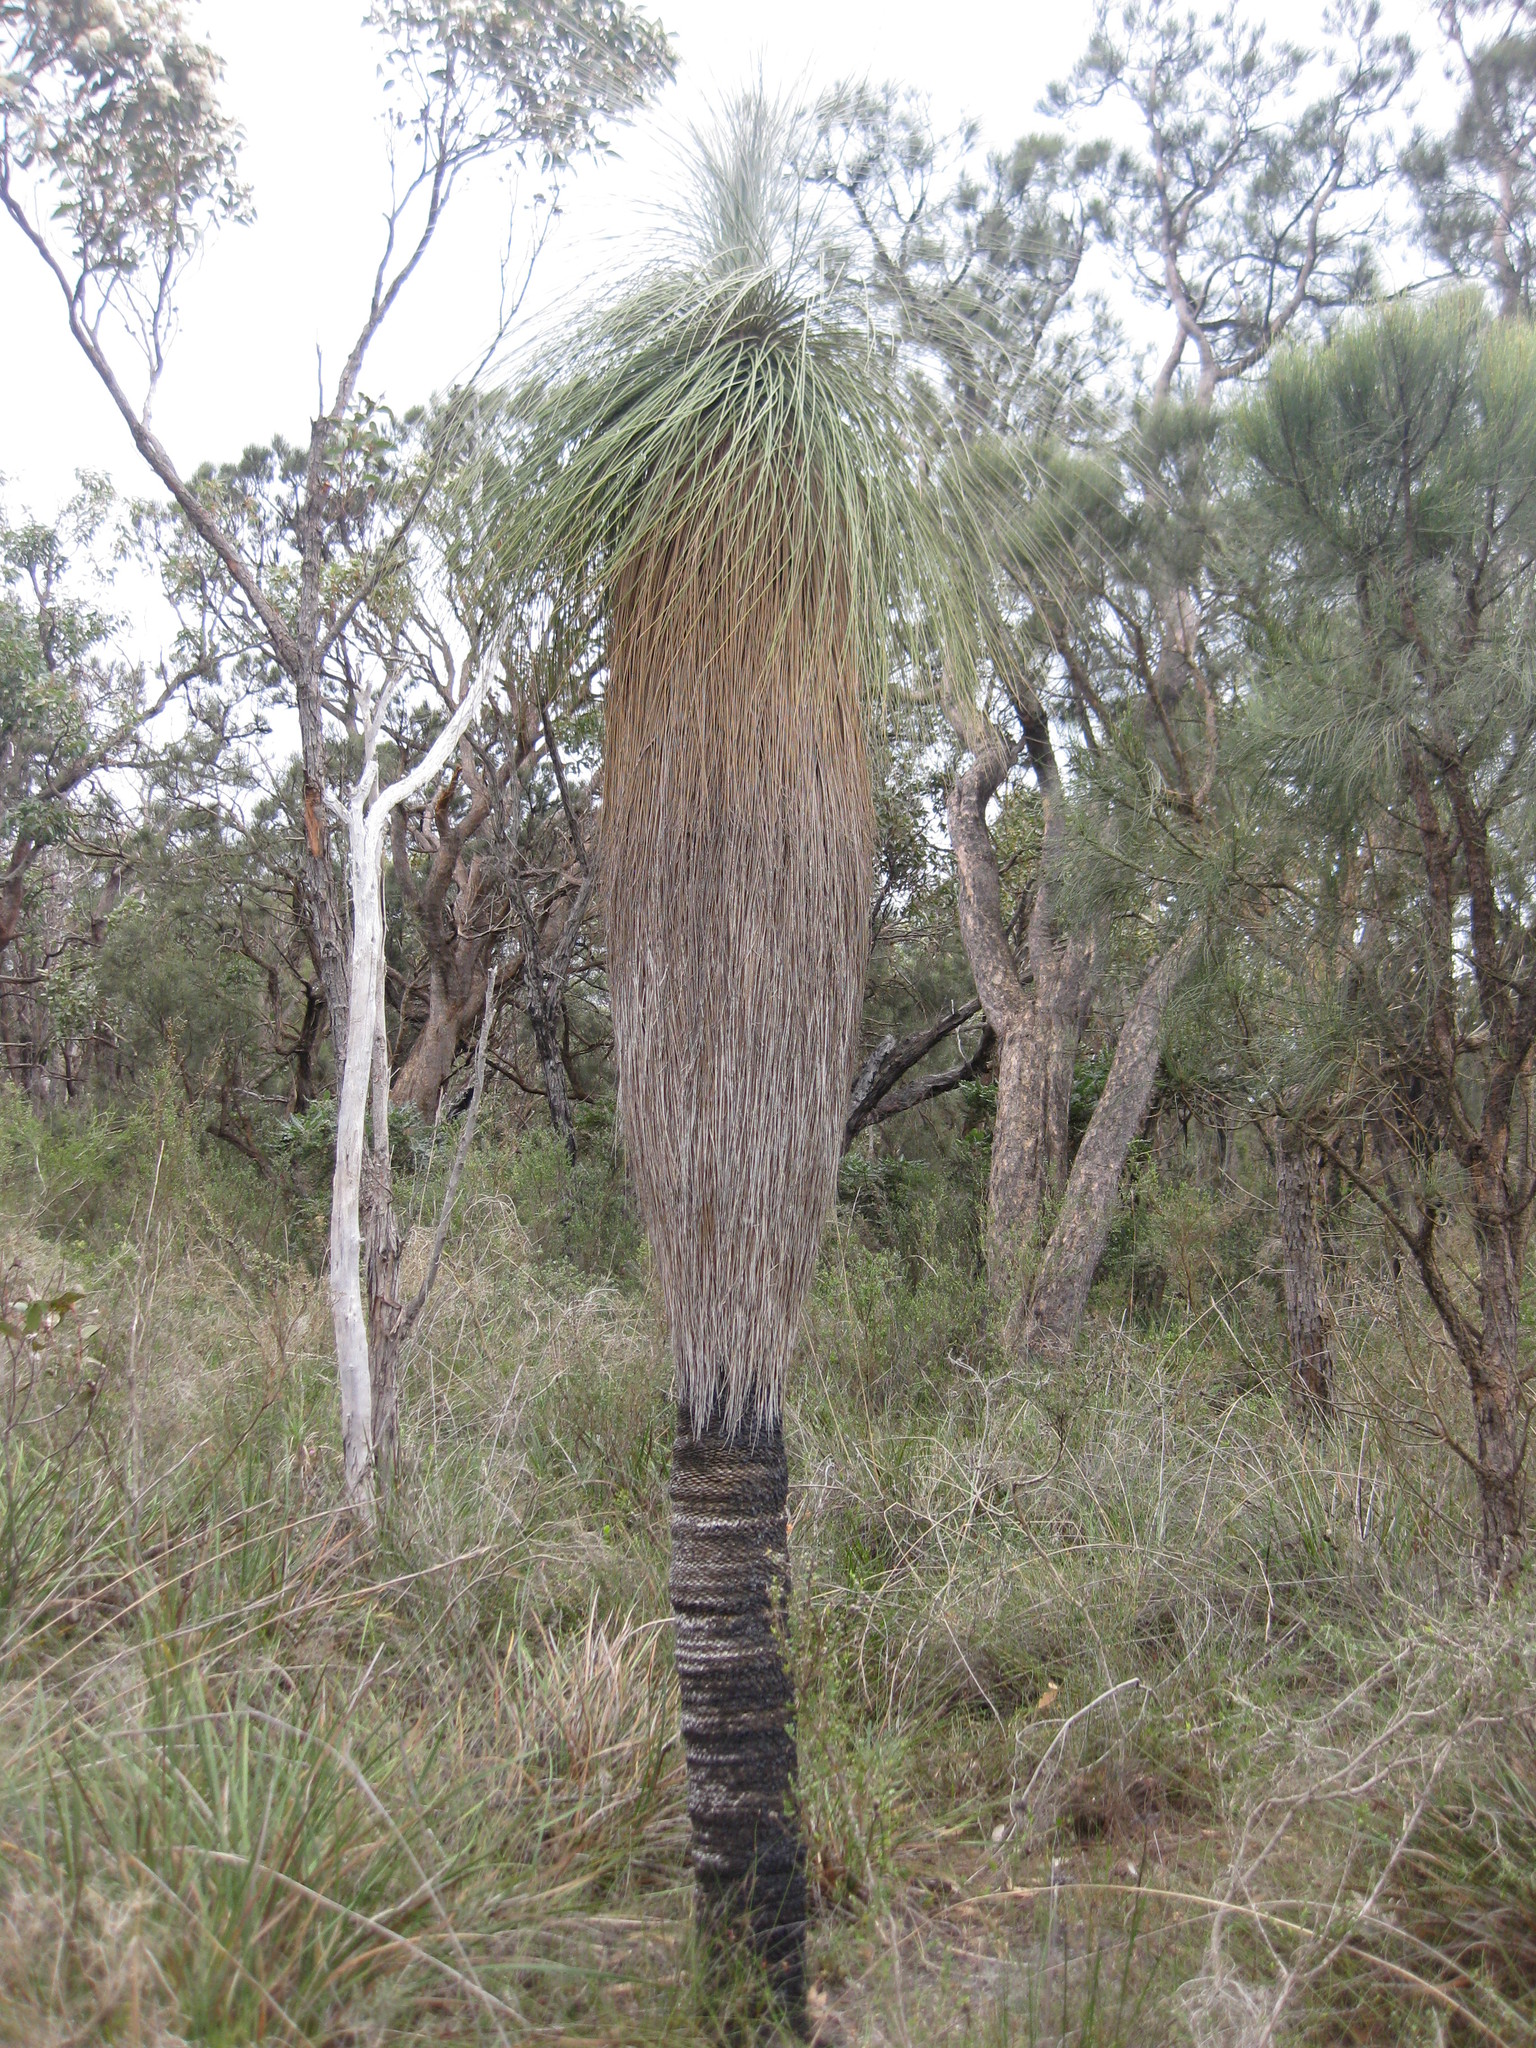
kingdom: Plantae
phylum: Tracheophyta
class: Liliopsida
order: Arecales
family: Dasypogonaceae
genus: Kingia
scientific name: Kingia australis
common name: Black gin
